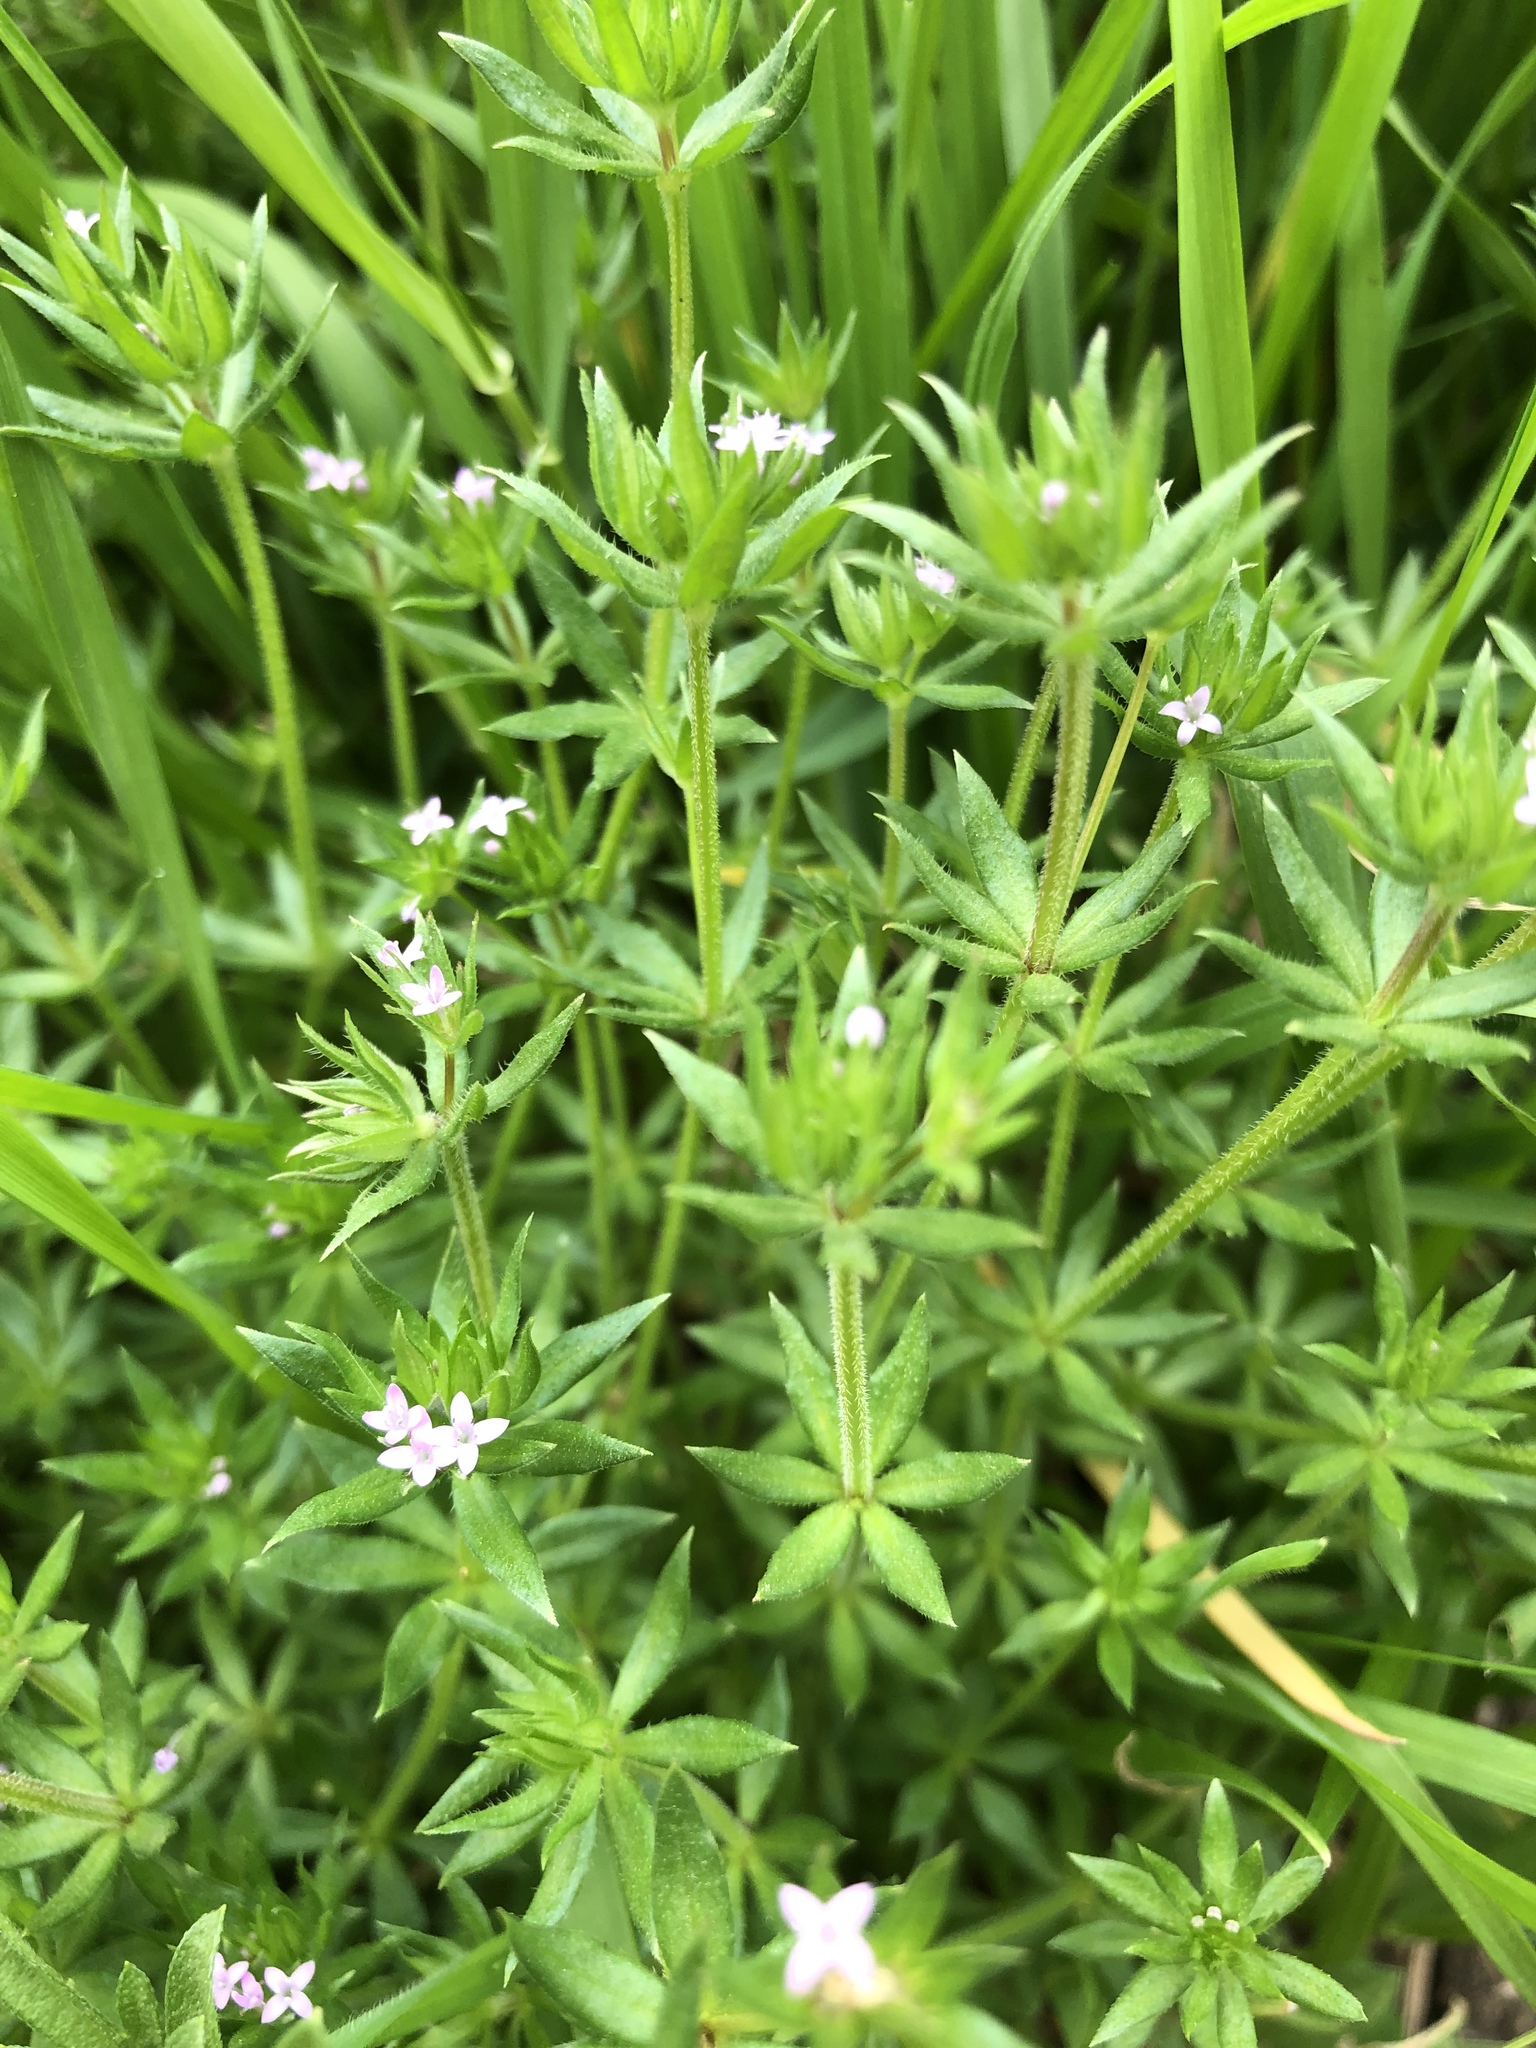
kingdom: Plantae
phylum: Tracheophyta
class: Magnoliopsida
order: Gentianales
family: Rubiaceae
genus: Sherardia
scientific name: Sherardia arvensis
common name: Field madder
